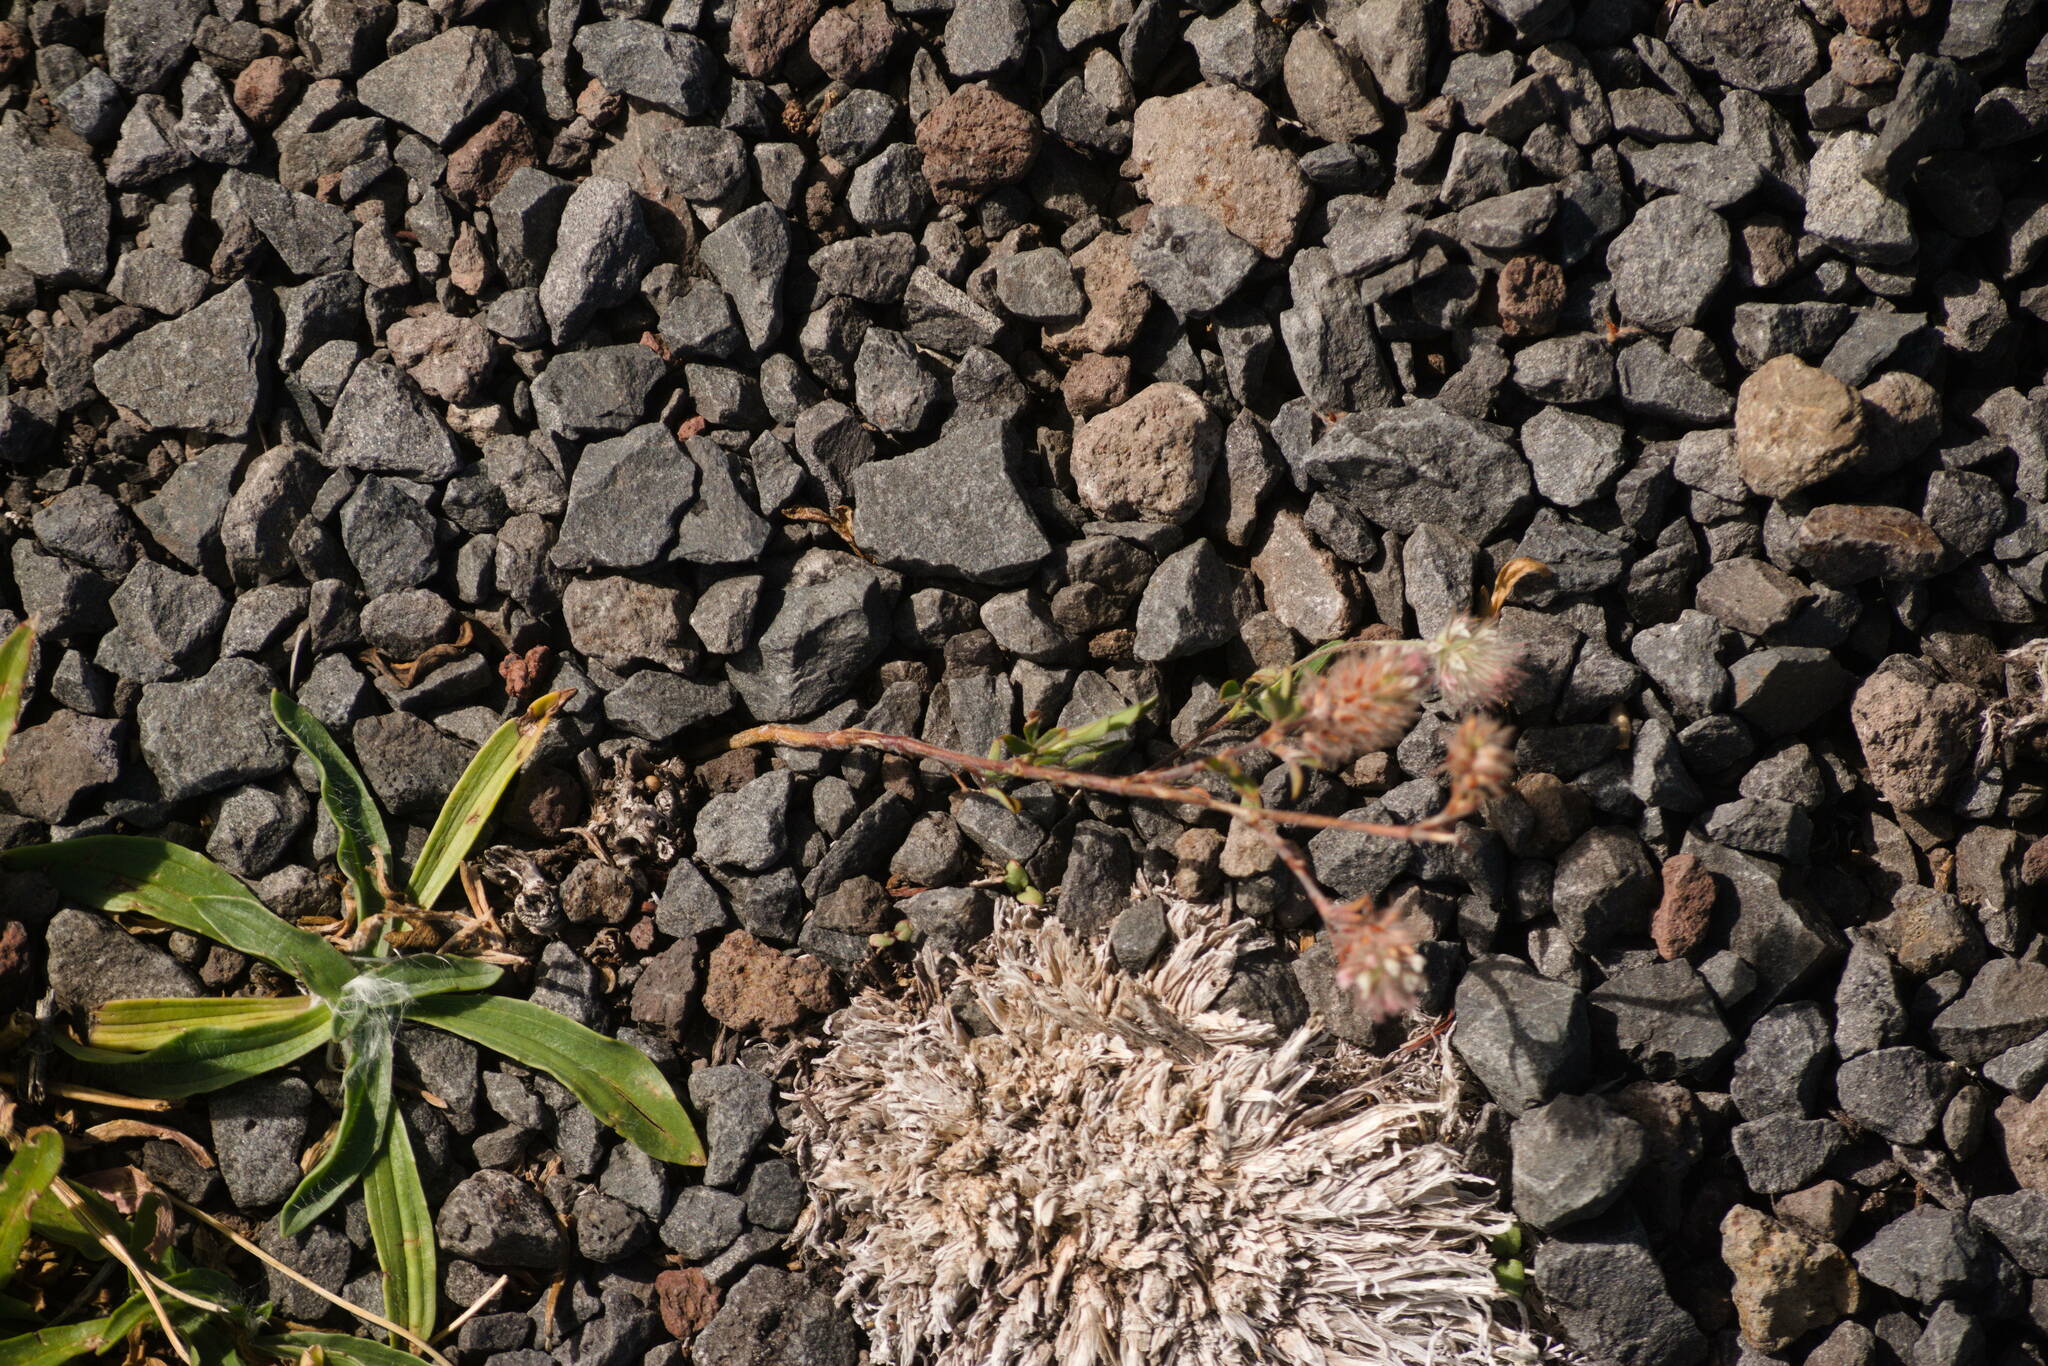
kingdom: Plantae
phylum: Tracheophyta
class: Magnoliopsida
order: Fabales
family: Fabaceae
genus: Trifolium
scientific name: Trifolium arvense
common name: Hare's-foot clover
